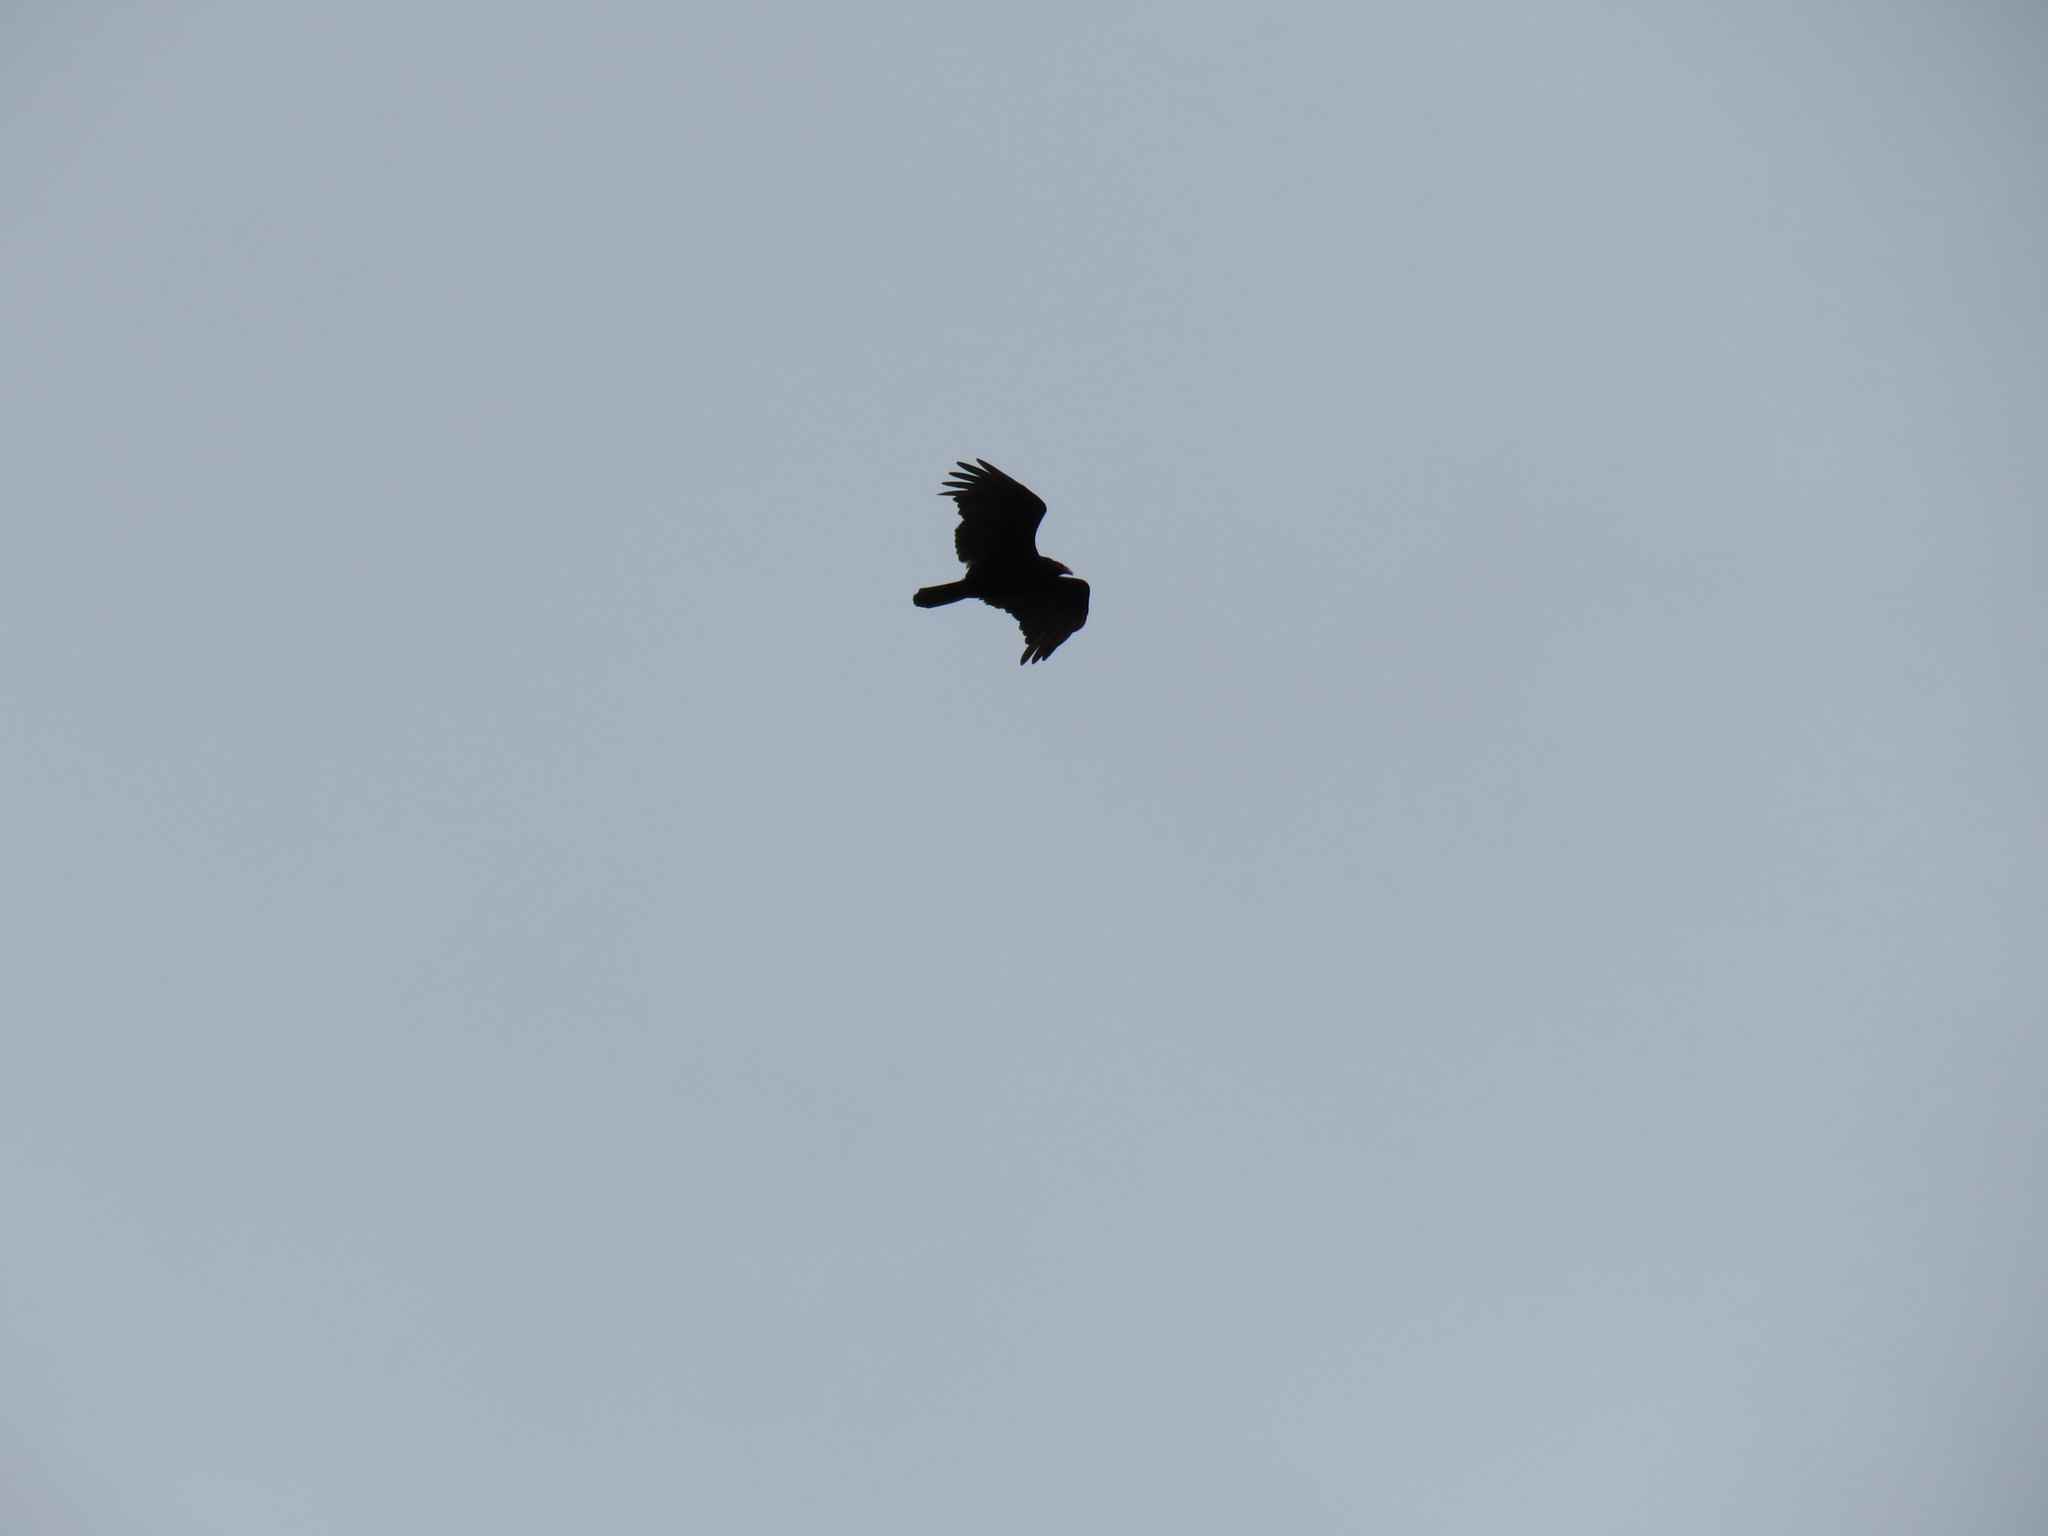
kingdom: Animalia
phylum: Chordata
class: Aves
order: Accipitriformes
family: Cathartidae
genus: Cathartes
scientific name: Cathartes aura
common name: Turkey vulture
